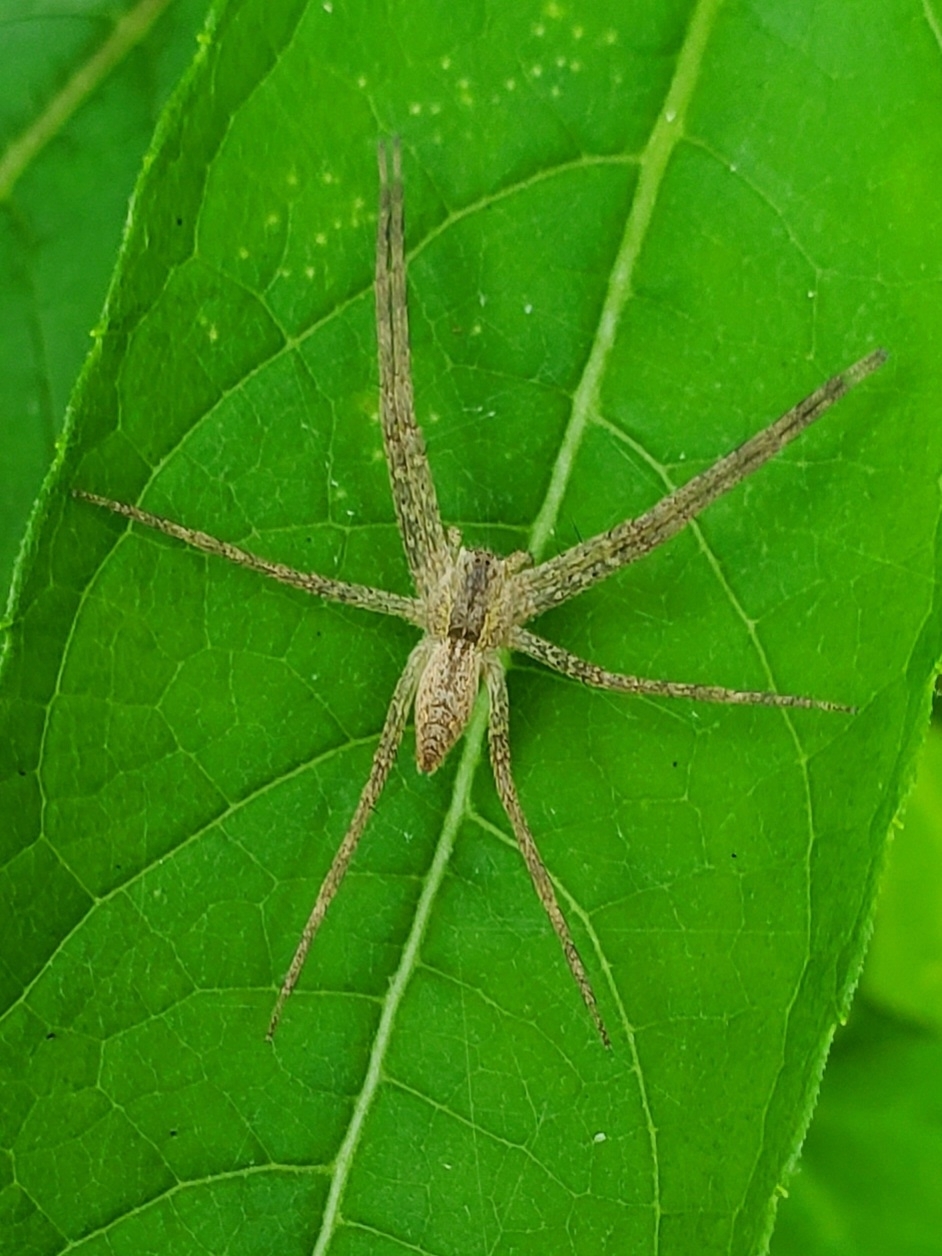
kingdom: Animalia
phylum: Arthropoda
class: Arachnida
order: Araneae
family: Pisauridae
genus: Pisaurina
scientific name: Pisaurina mira
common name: American nursery web spider
